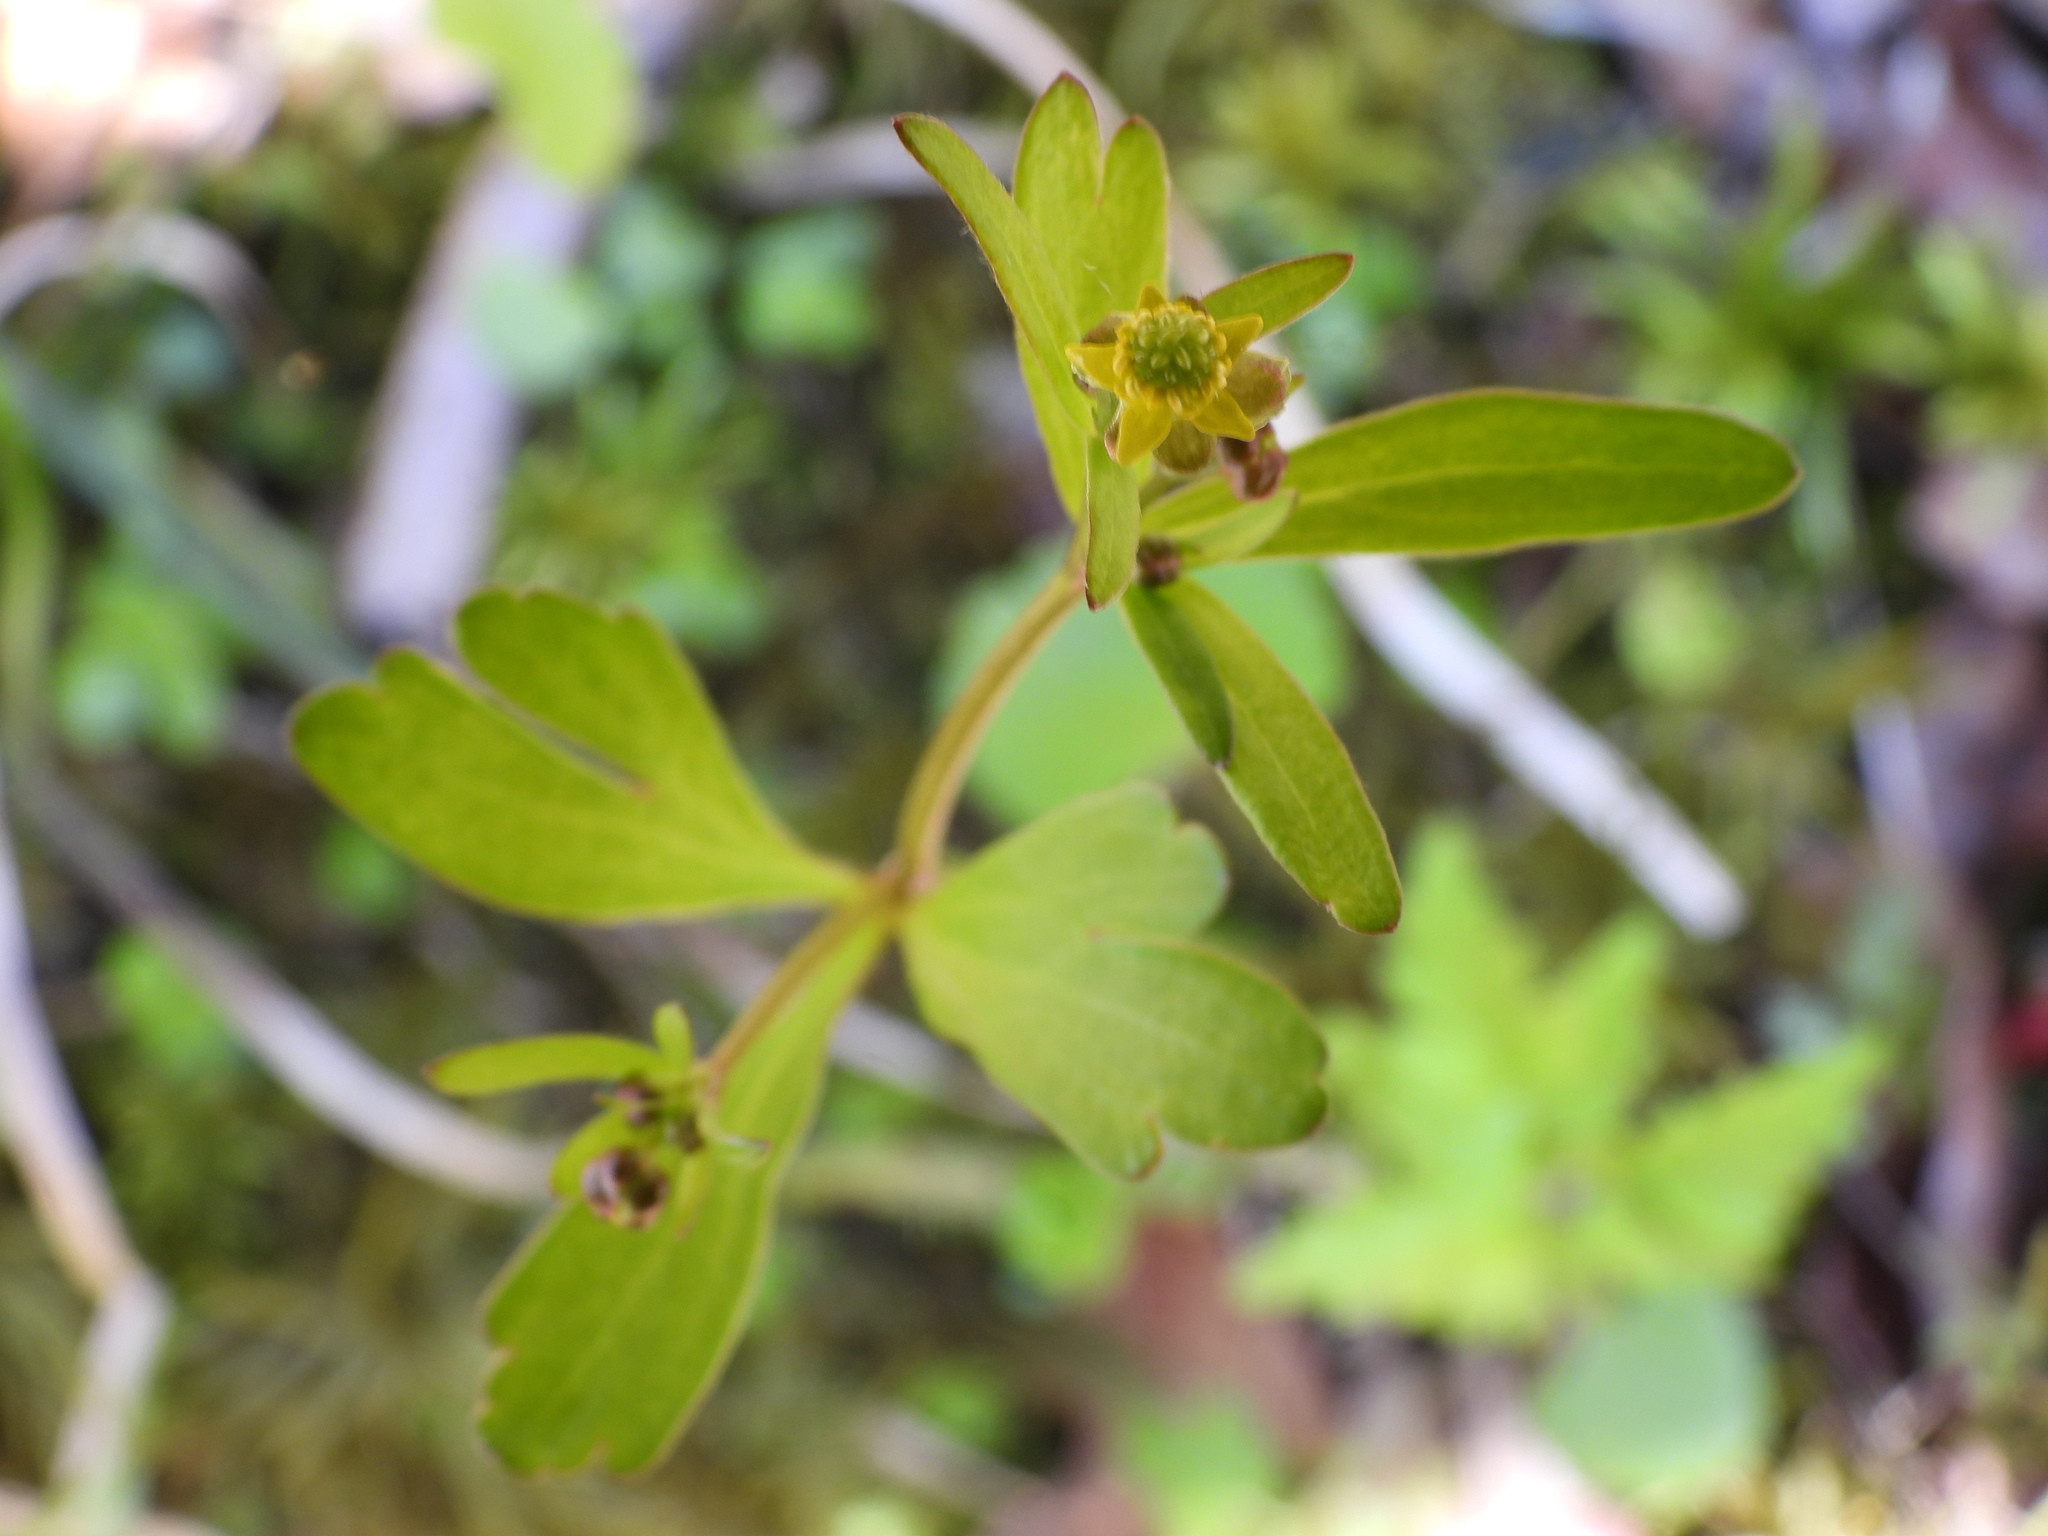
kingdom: Plantae
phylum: Tracheophyta
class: Magnoliopsida
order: Ranunculales
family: Ranunculaceae
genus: Ranunculus
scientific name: Ranunculus abortivus
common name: Early wood buttercup
